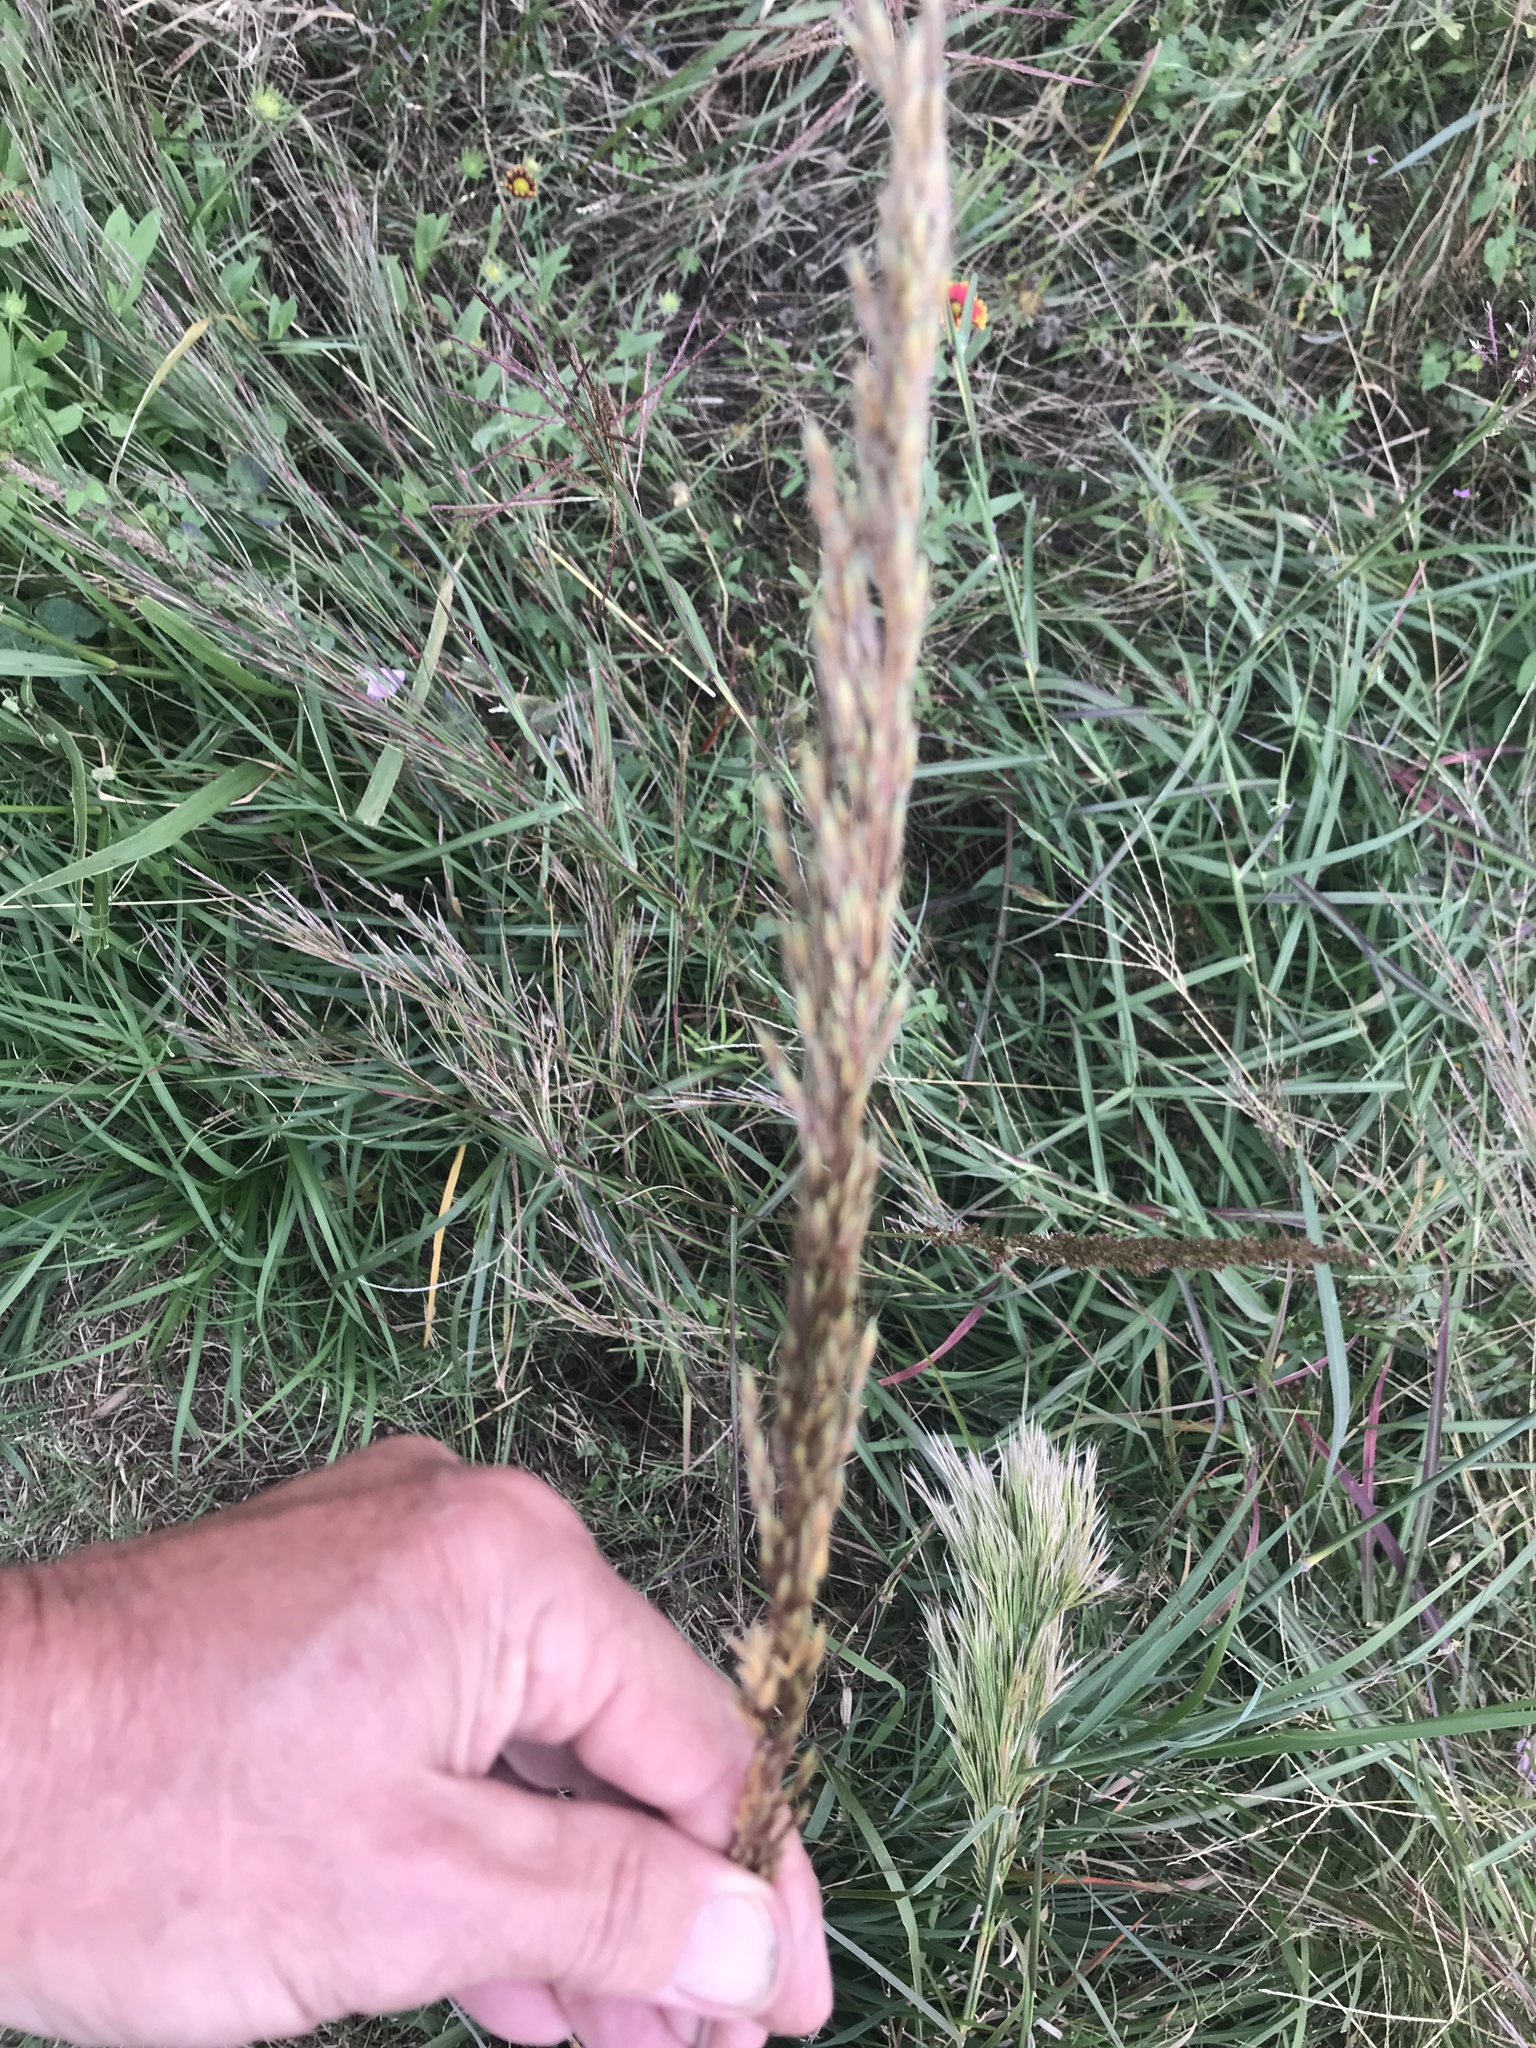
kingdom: Plantae
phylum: Tracheophyta
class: Liliopsida
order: Poales
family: Poaceae
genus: Sorghastrum
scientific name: Sorghastrum nutans
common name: Indian grass
